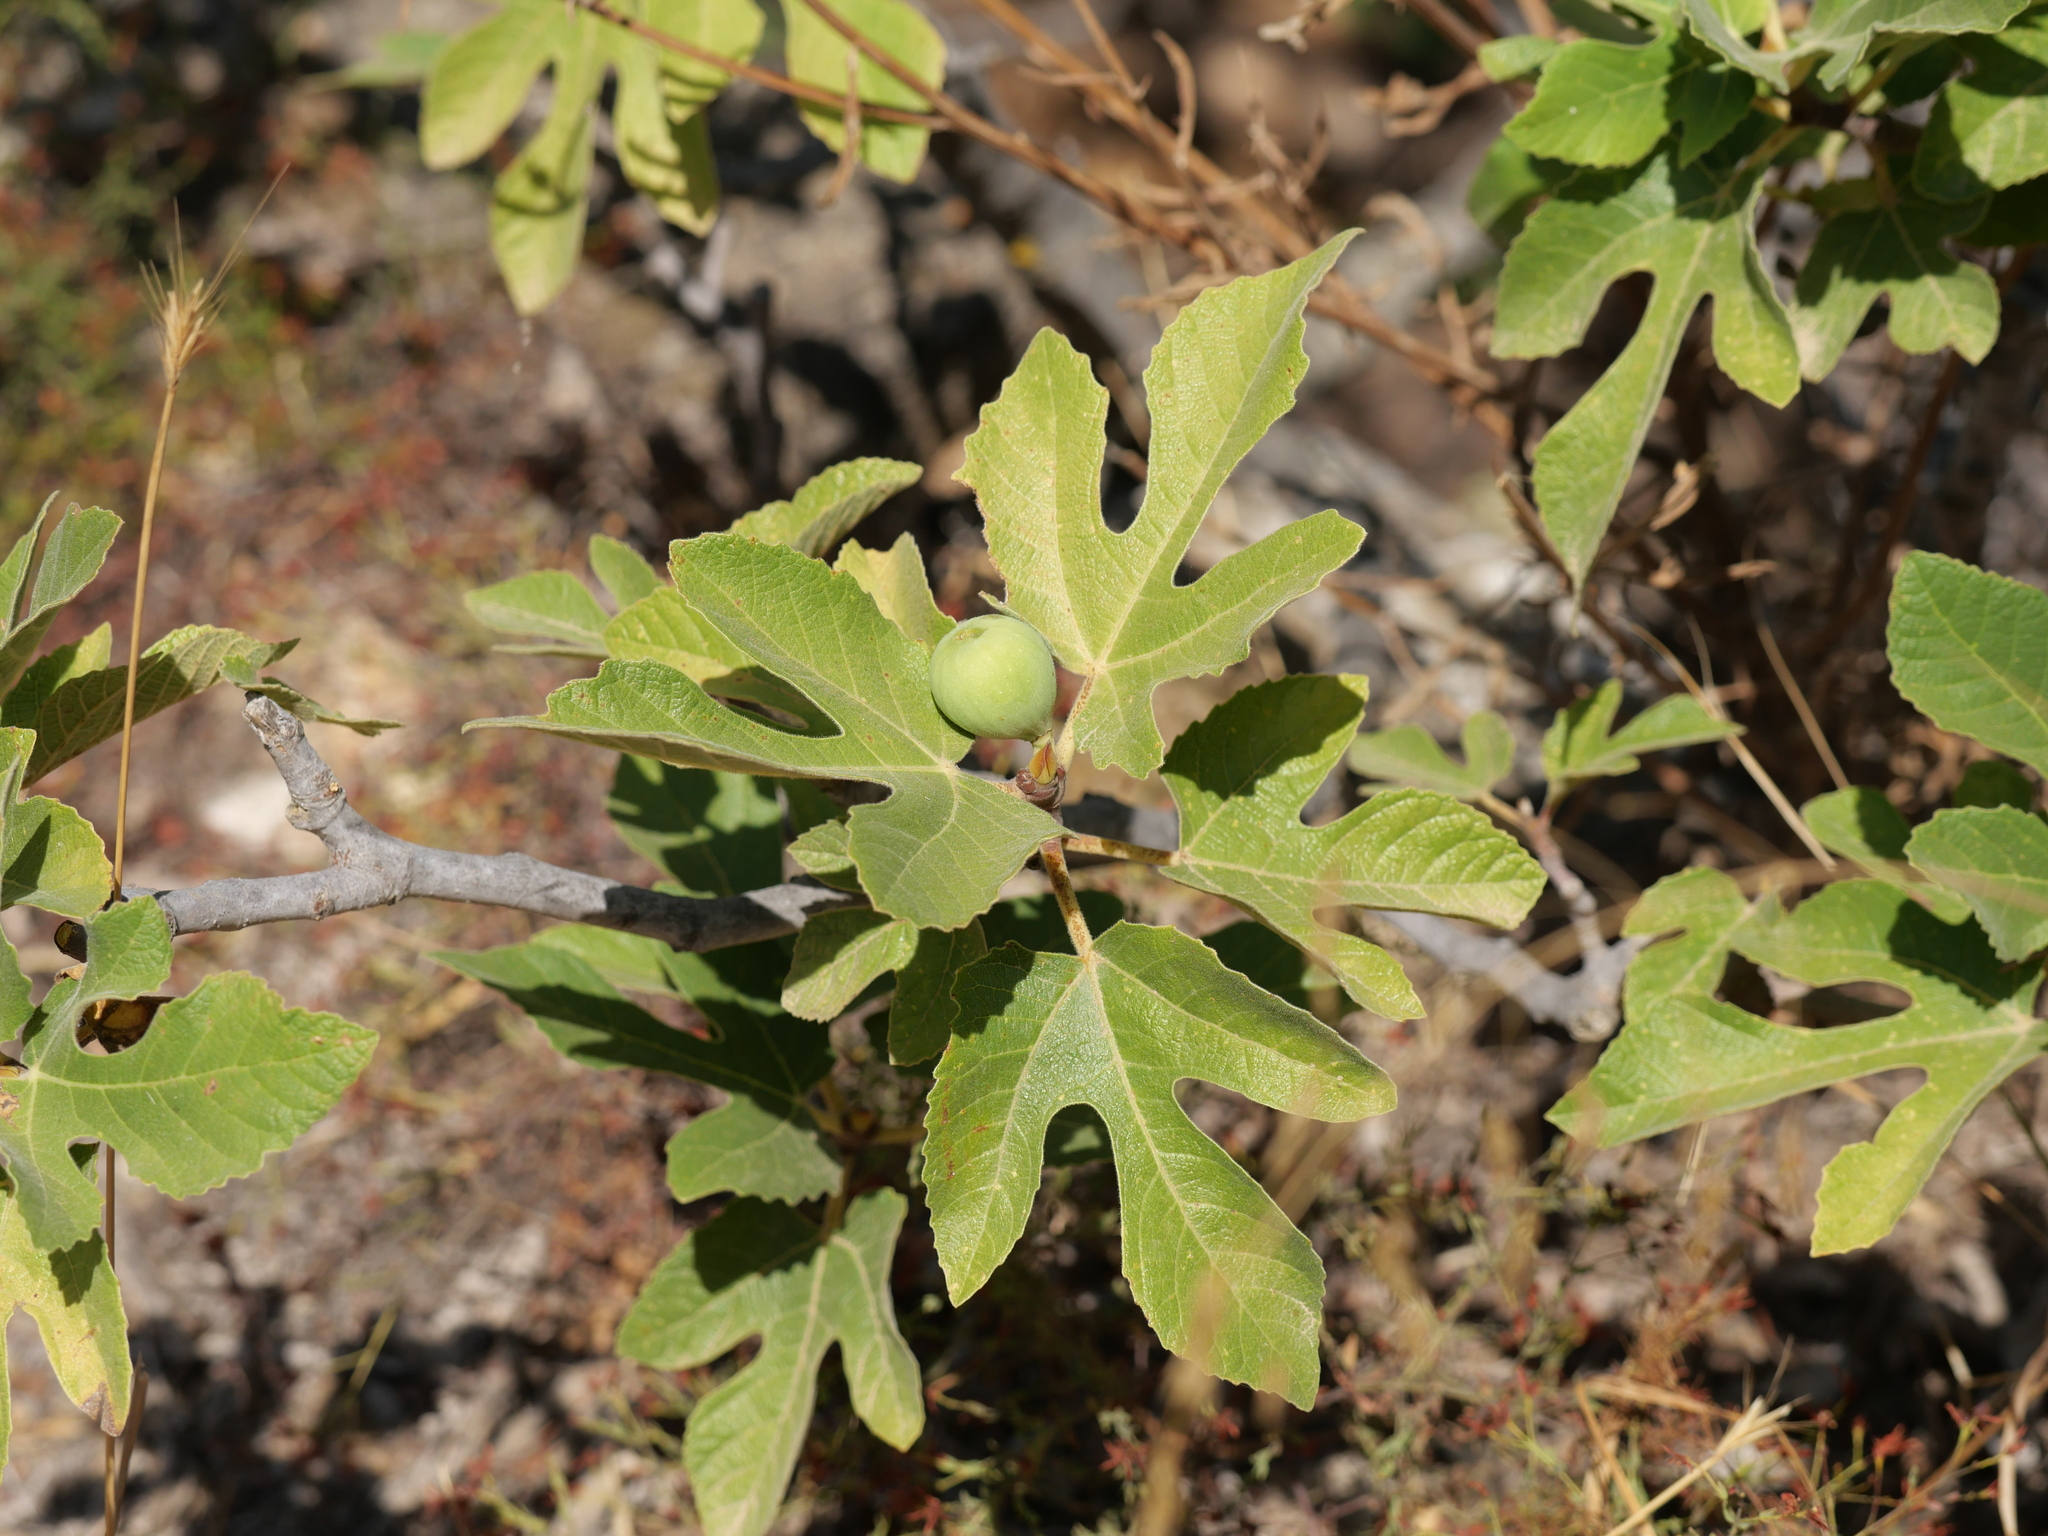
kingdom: Plantae
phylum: Tracheophyta
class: Magnoliopsida
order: Rosales
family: Moraceae
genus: Ficus
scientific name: Ficus carica
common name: Fig
